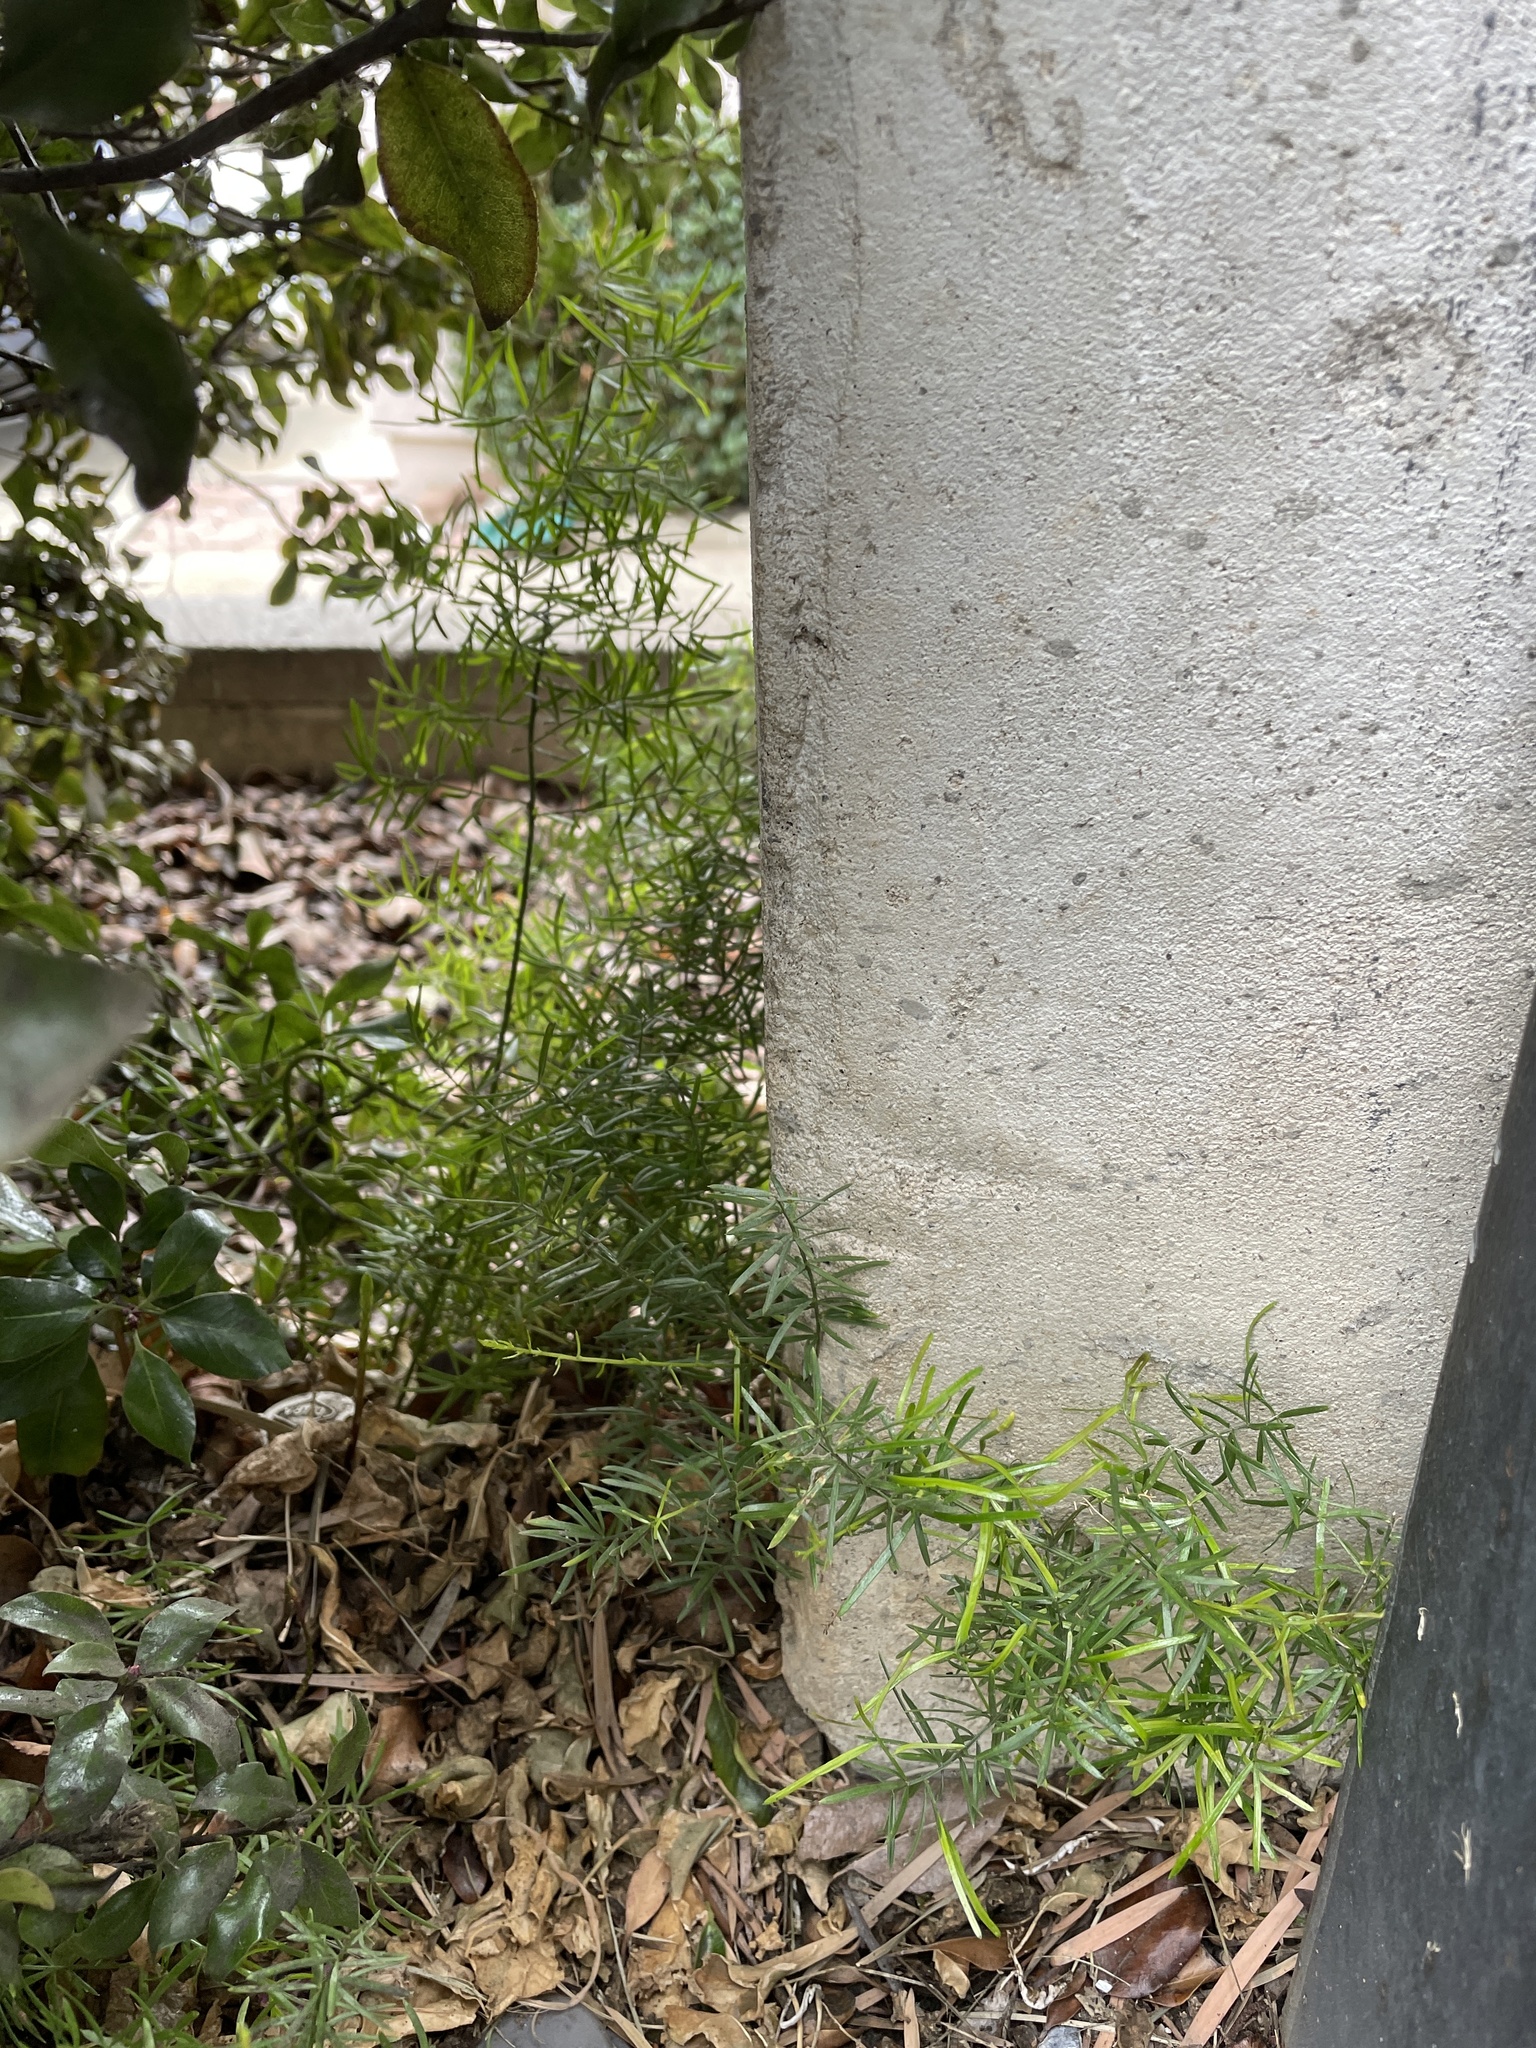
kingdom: Plantae
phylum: Tracheophyta
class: Liliopsida
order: Asparagales
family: Asparagaceae
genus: Asparagus
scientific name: Asparagus aethiopicus
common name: Sprenger's asparagus fern
